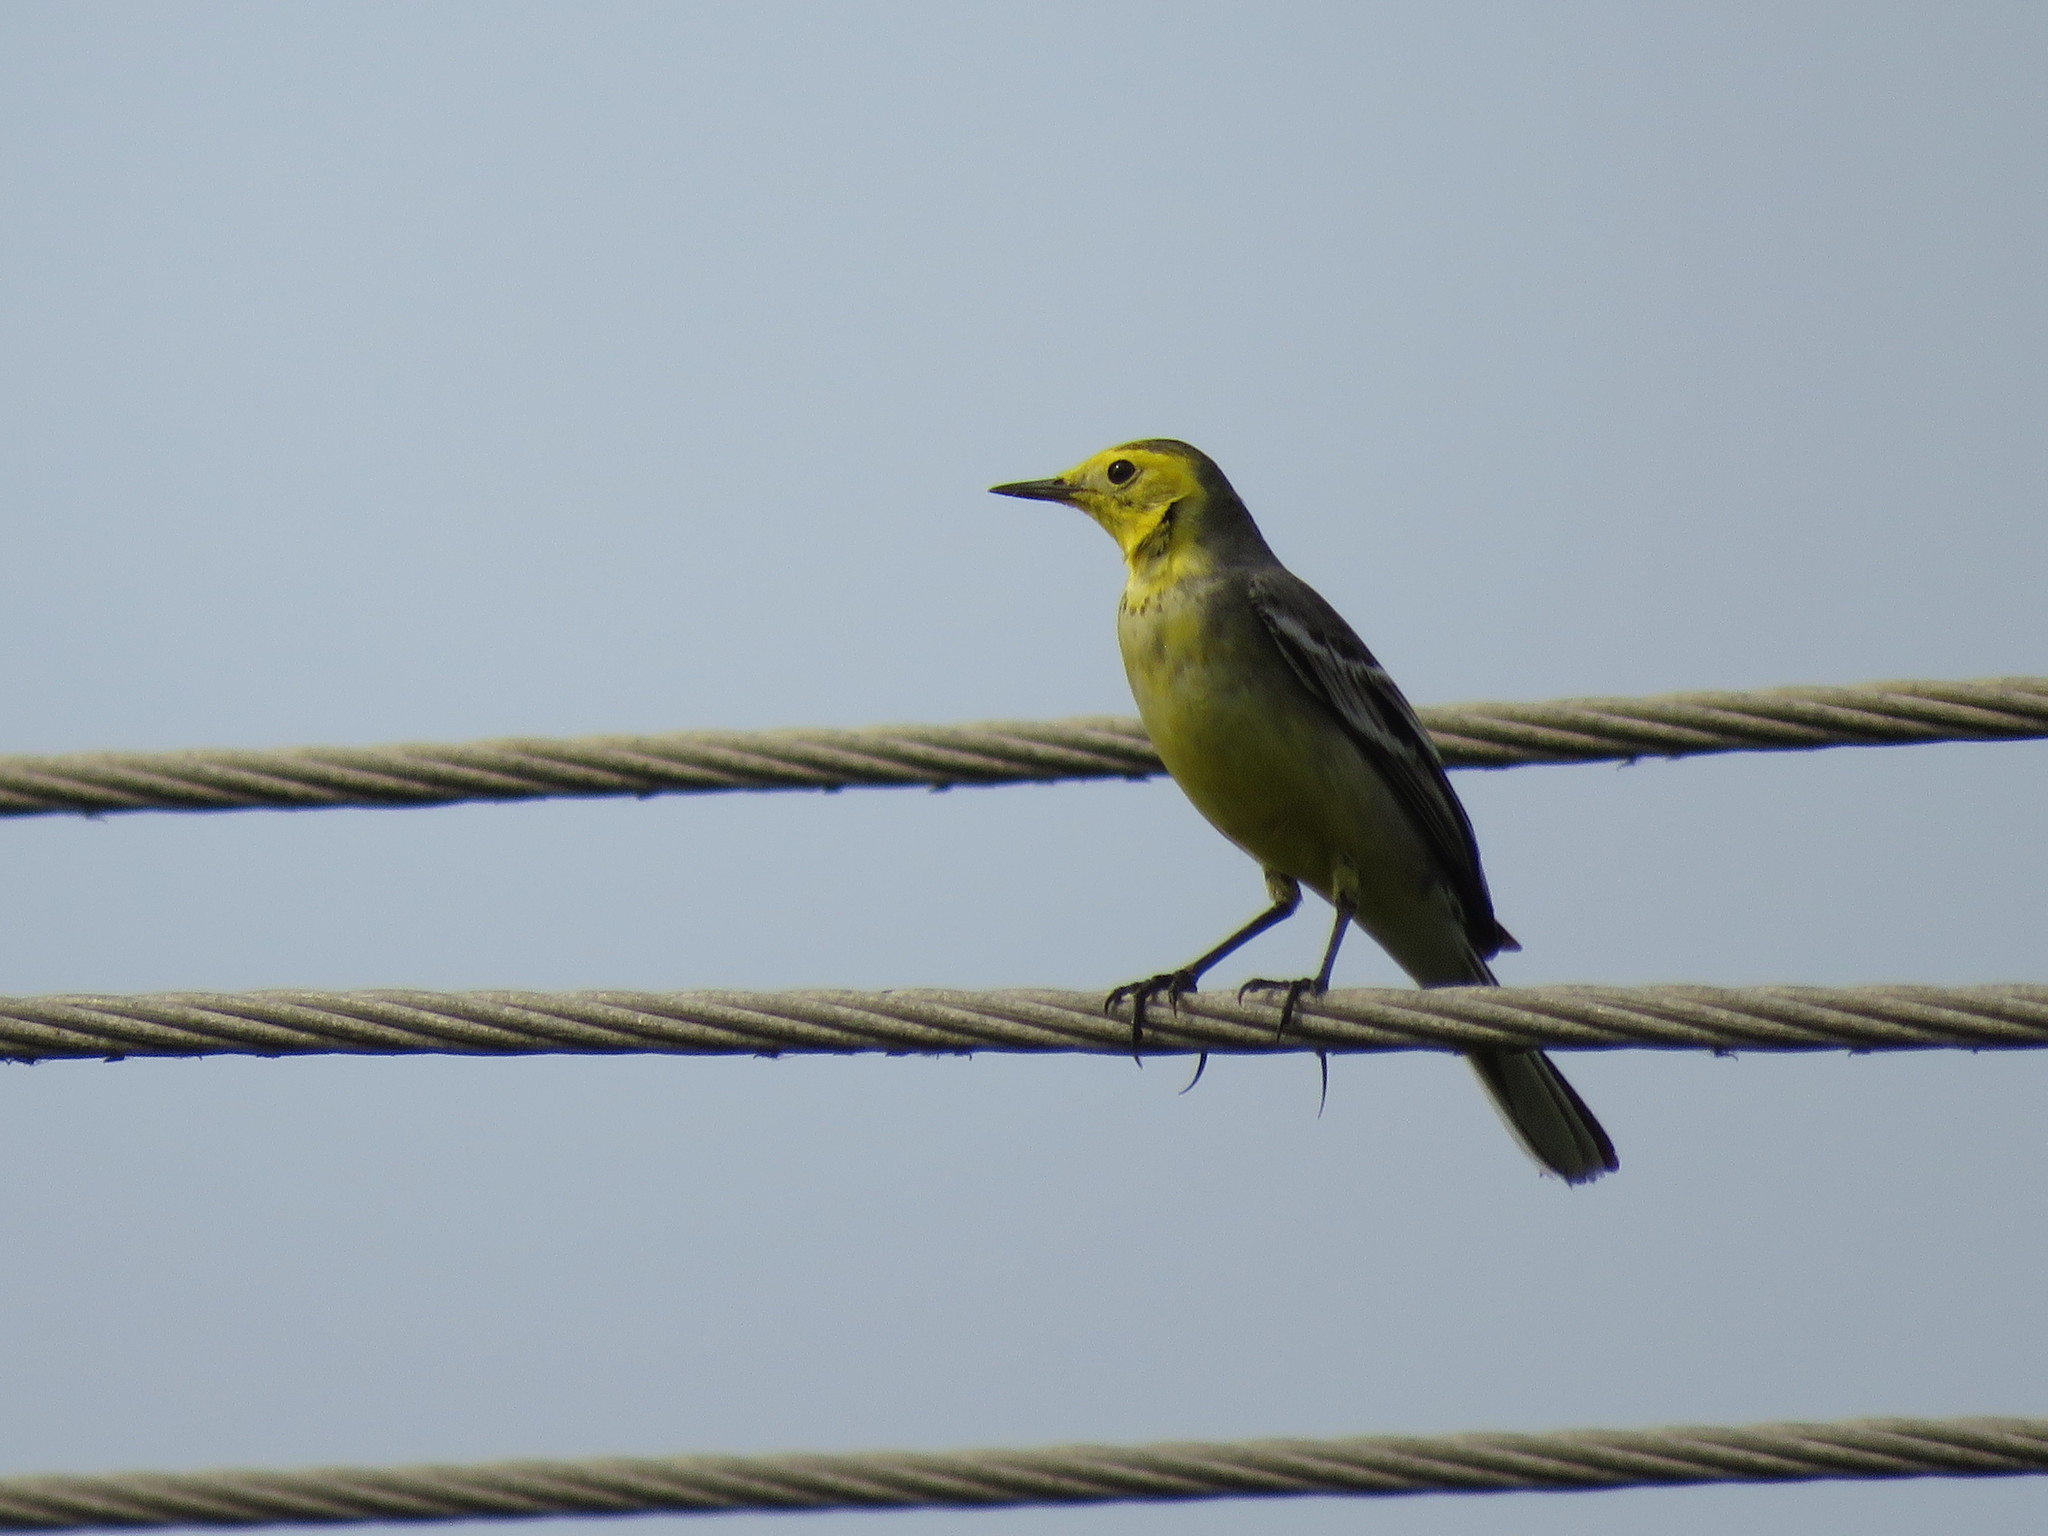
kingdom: Animalia
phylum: Chordata
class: Aves
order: Passeriformes
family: Motacillidae
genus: Motacilla
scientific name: Motacilla citreola
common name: Citrine wagtail
